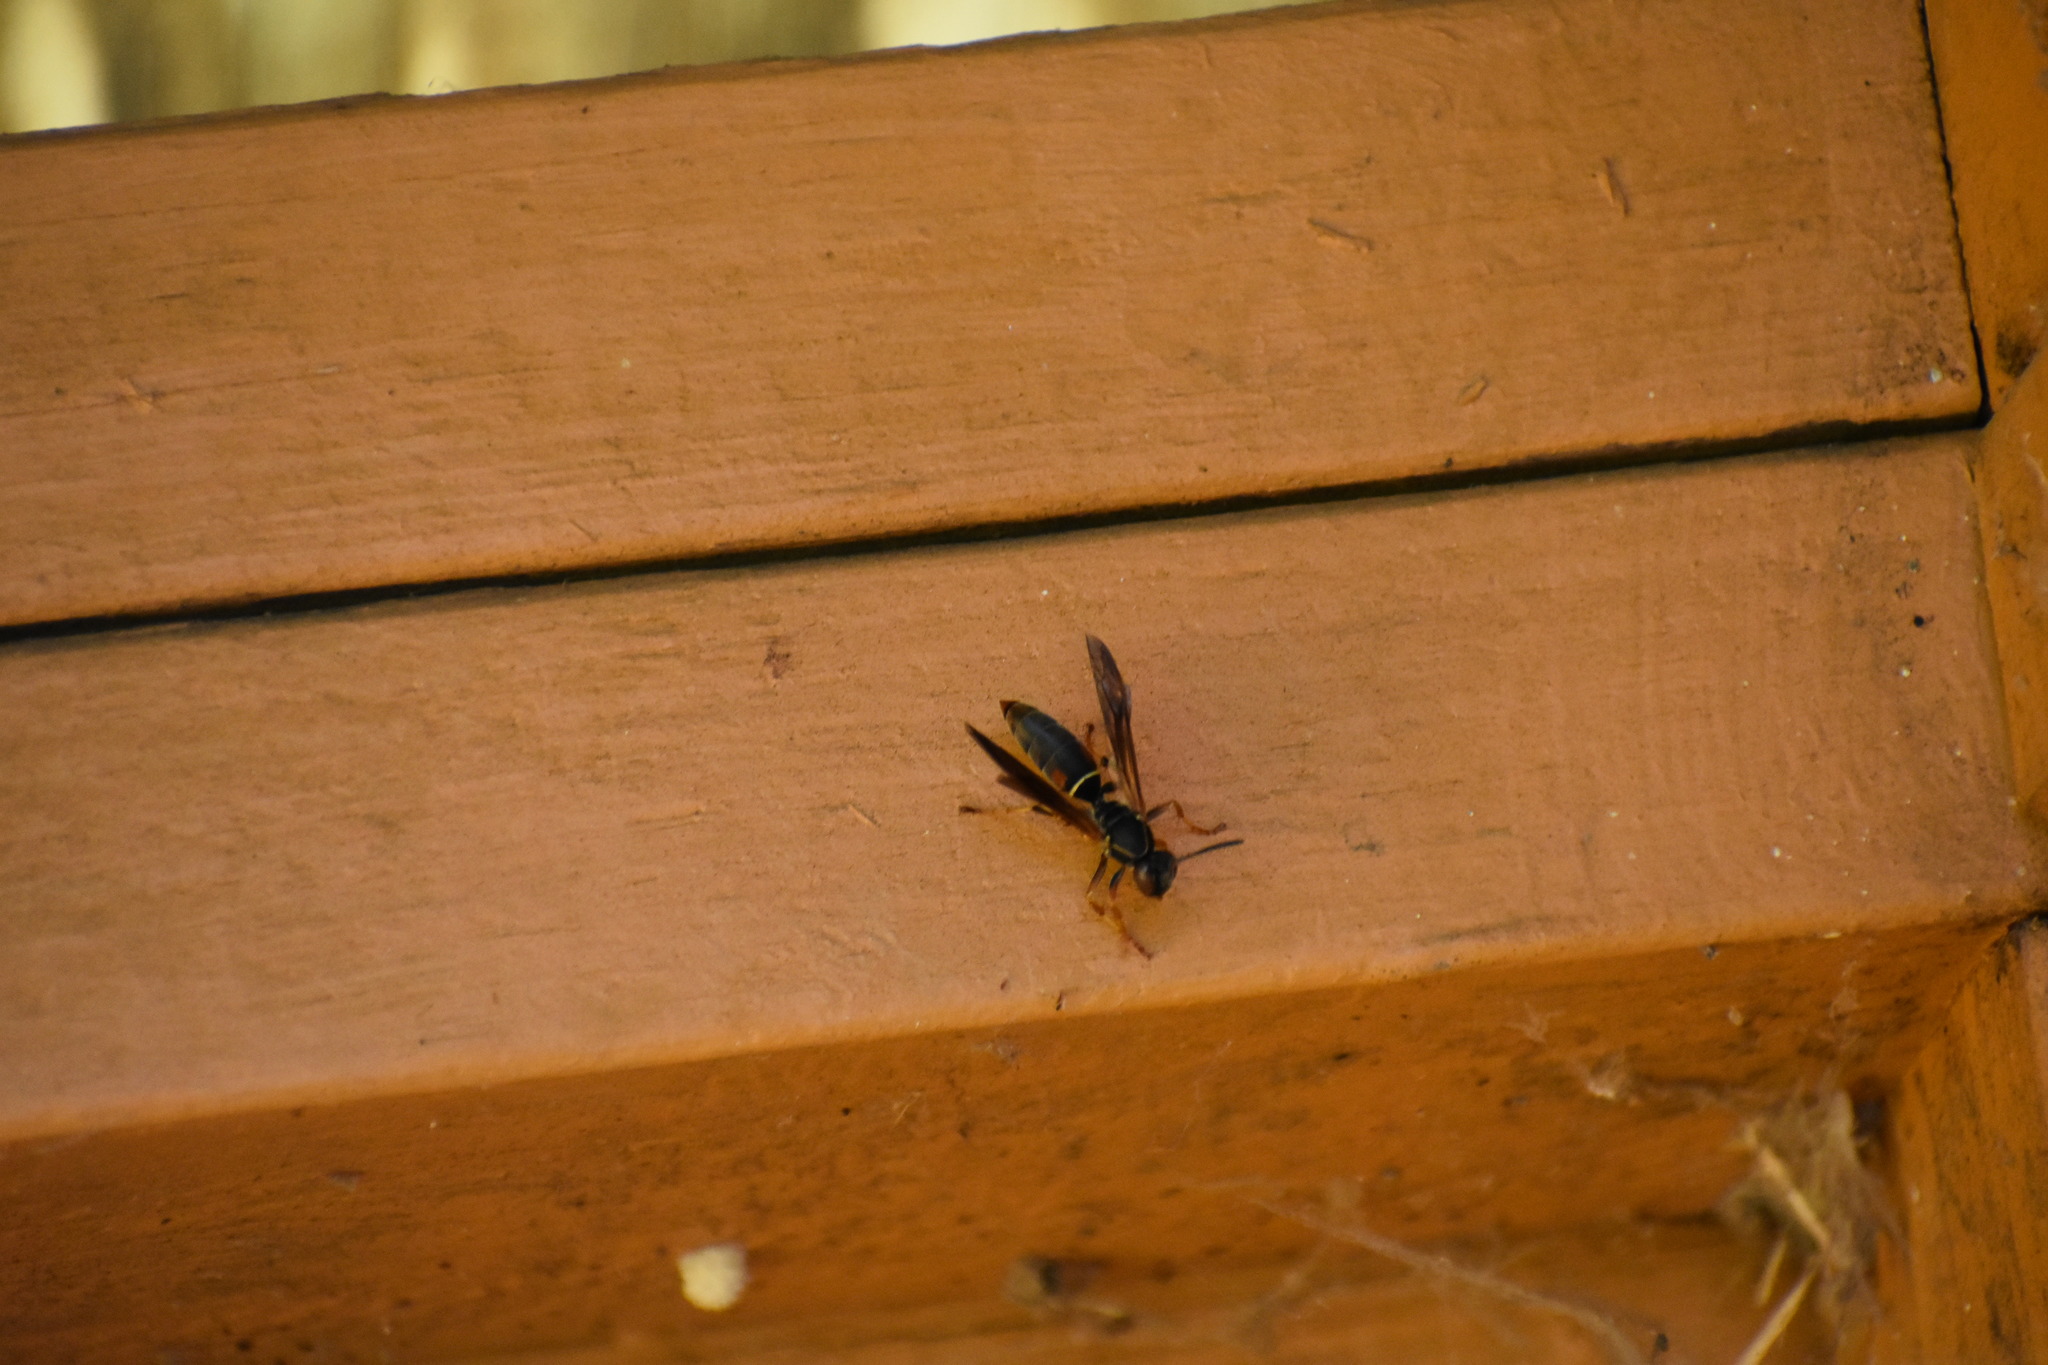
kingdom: Animalia
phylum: Arthropoda
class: Insecta
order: Hymenoptera
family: Eumenidae
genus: Polistes
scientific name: Polistes fuscatus
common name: Dark paper wasp
